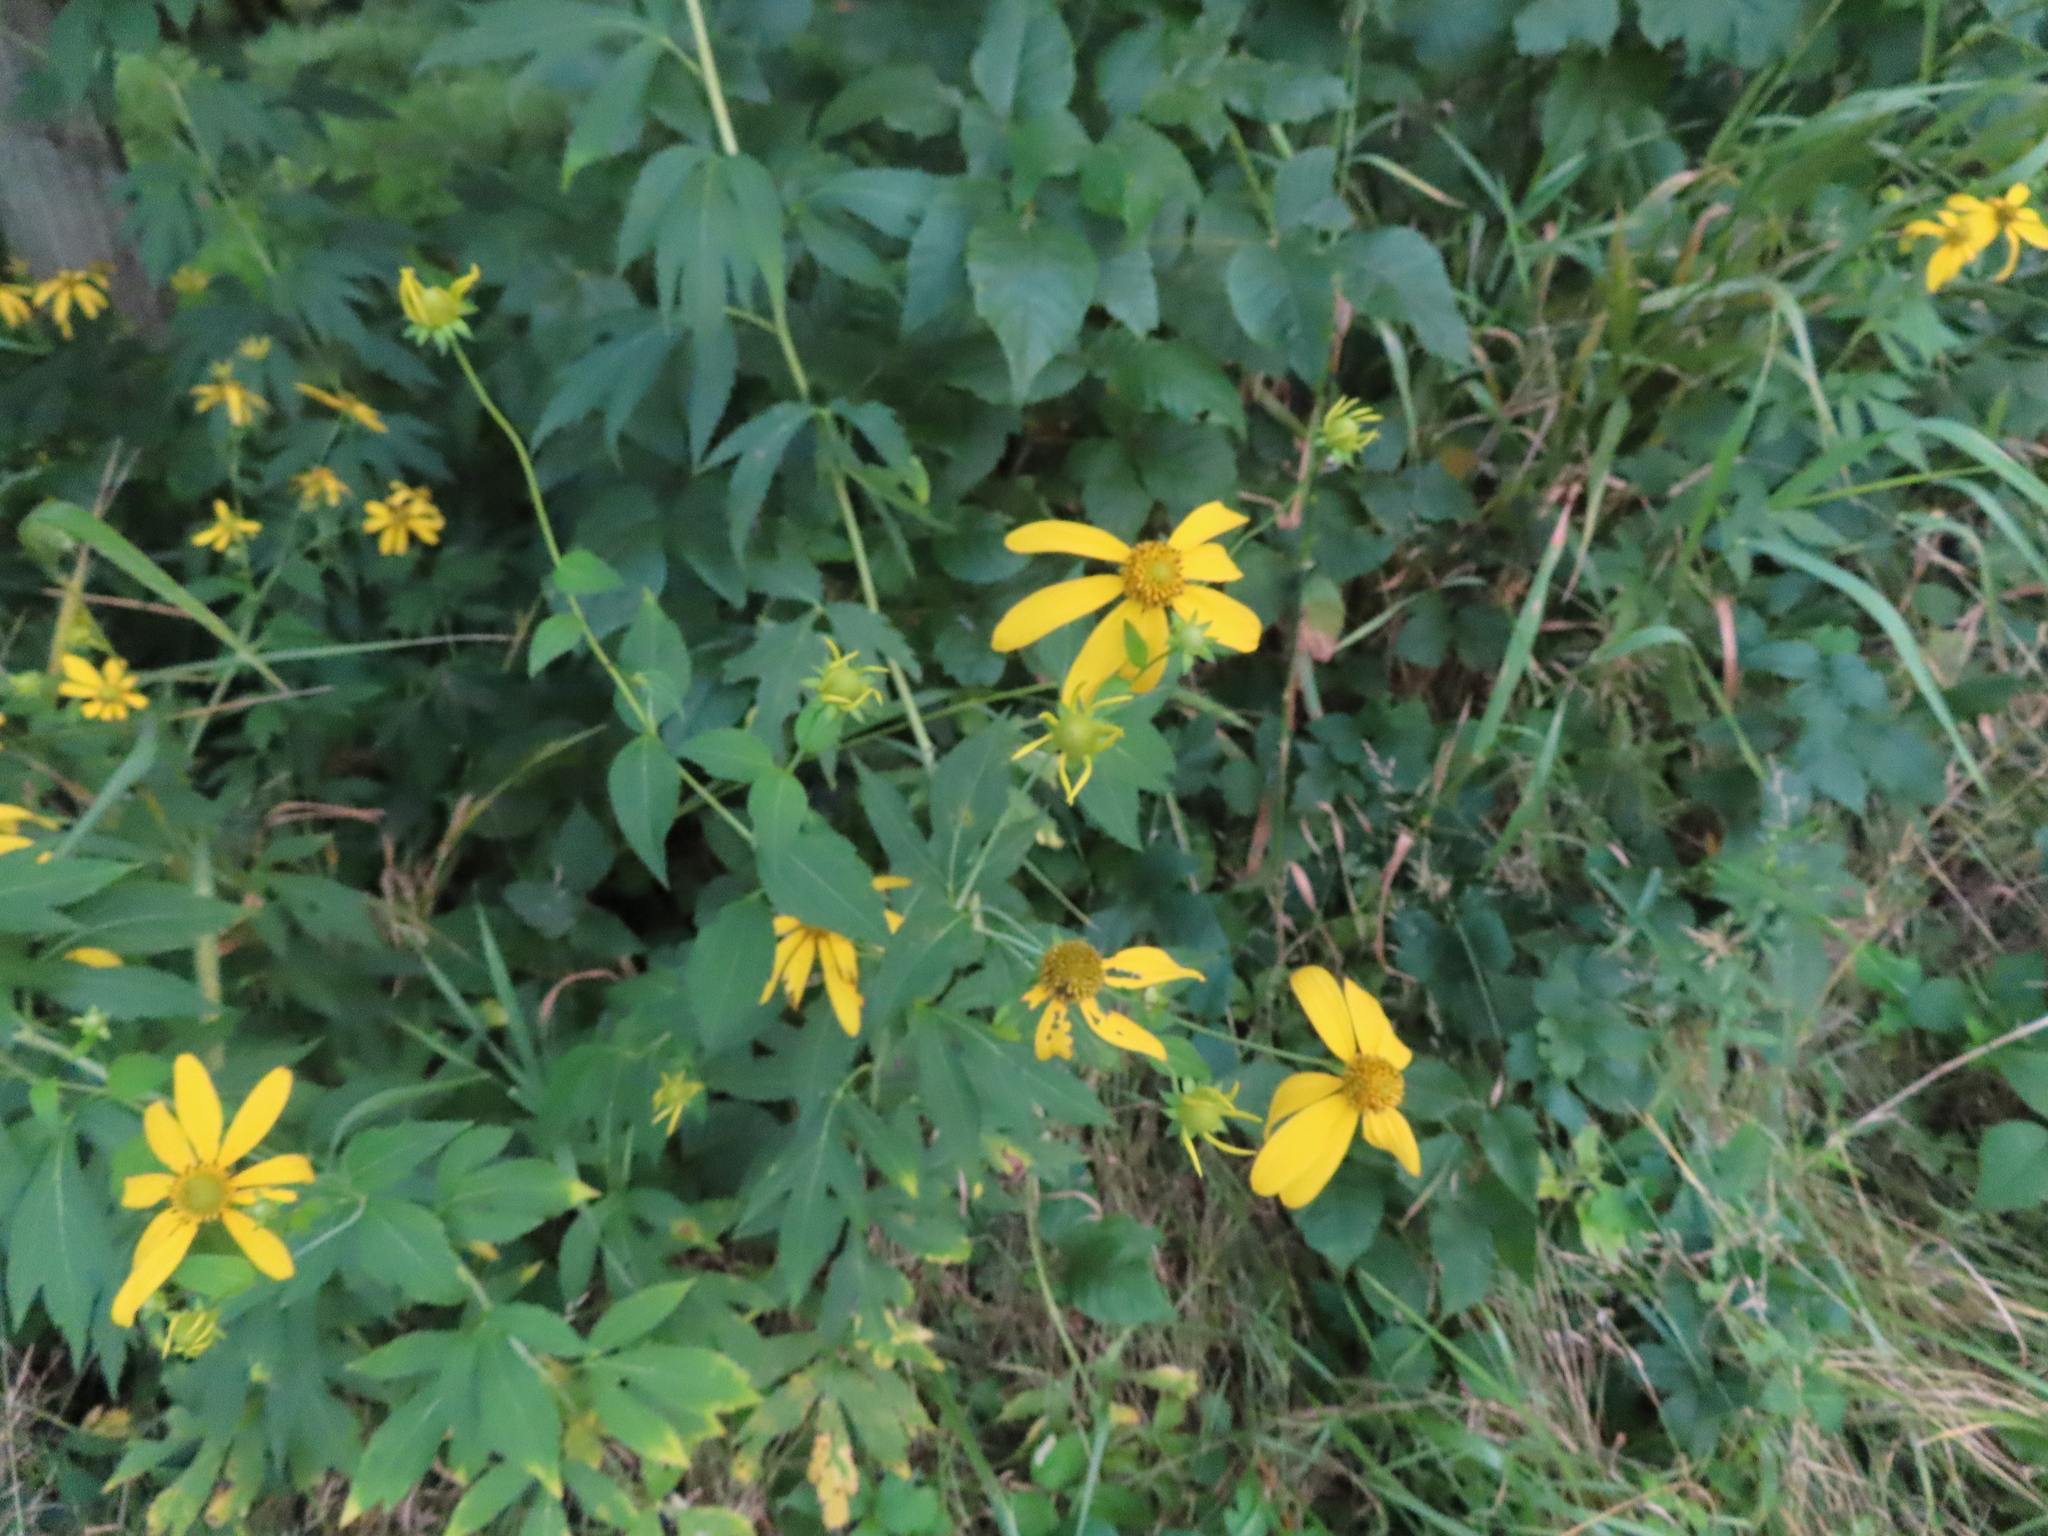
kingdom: Plantae
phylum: Tracheophyta
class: Magnoliopsida
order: Asterales
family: Asteraceae
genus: Rudbeckia
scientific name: Rudbeckia laciniata
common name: Coneflower
